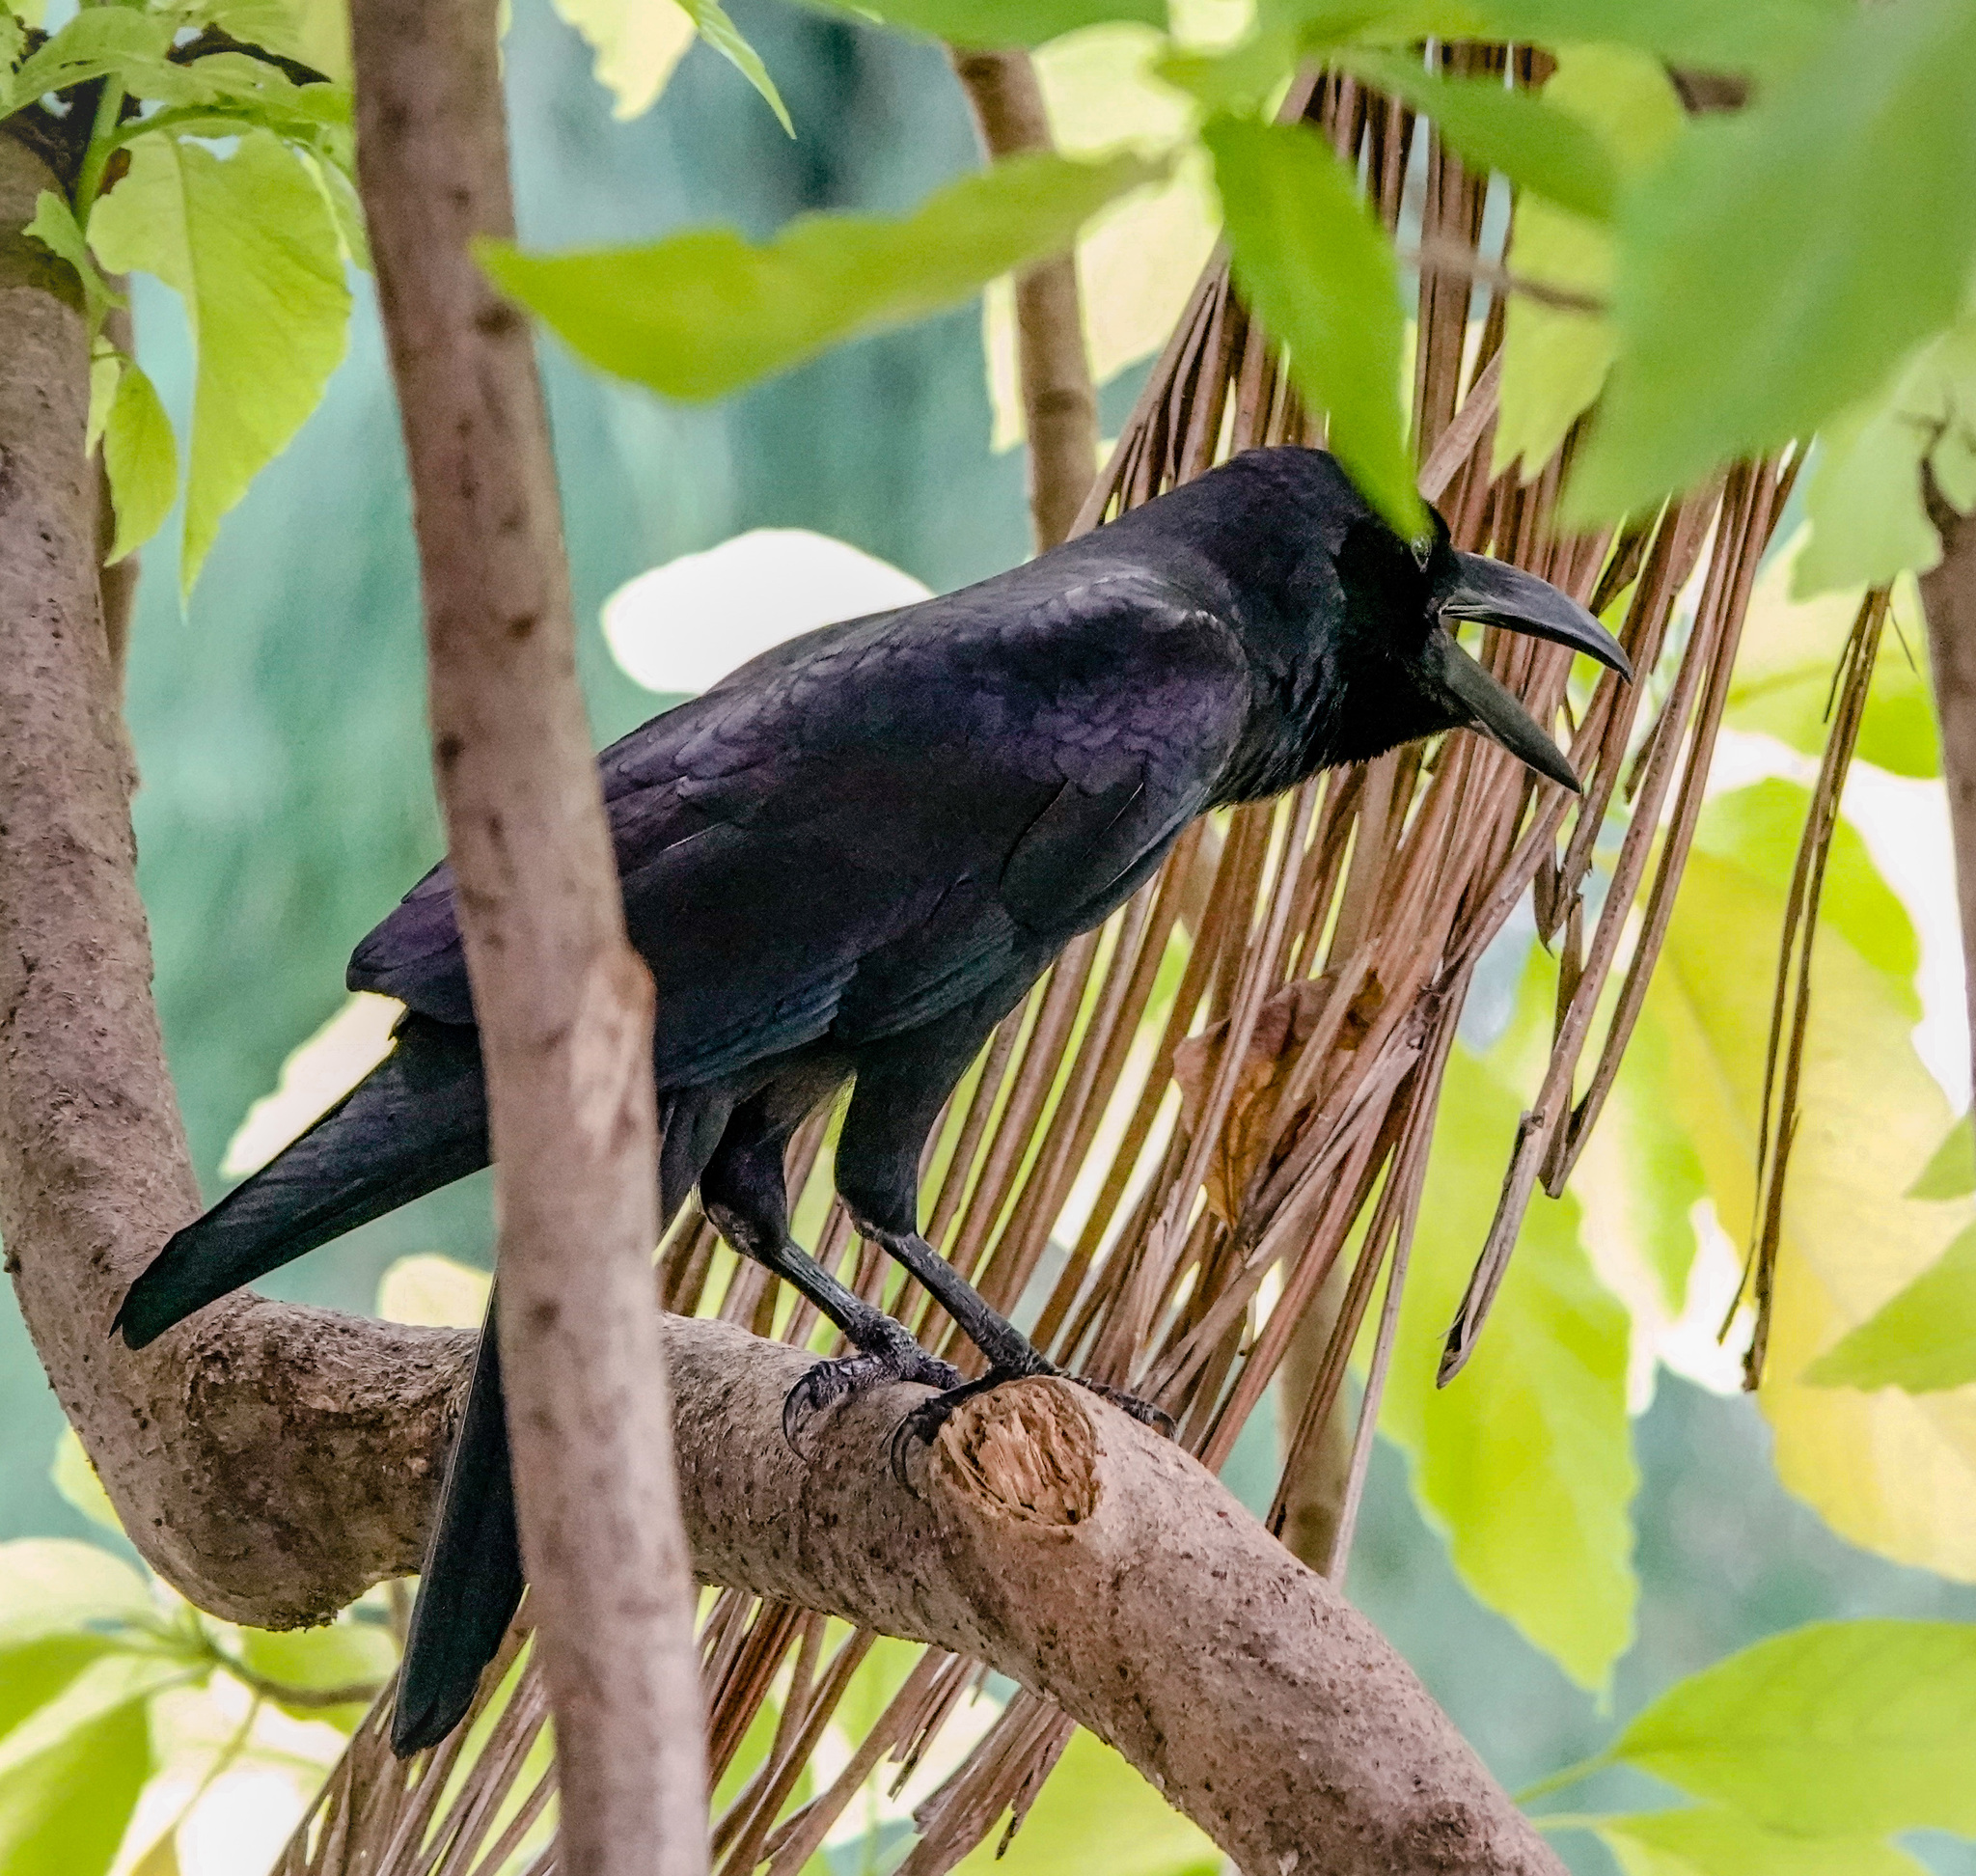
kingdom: Animalia
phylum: Chordata
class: Aves
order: Passeriformes
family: Corvidae
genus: Corvus
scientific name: Corvus macrorhynchos
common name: Large-billed crow
